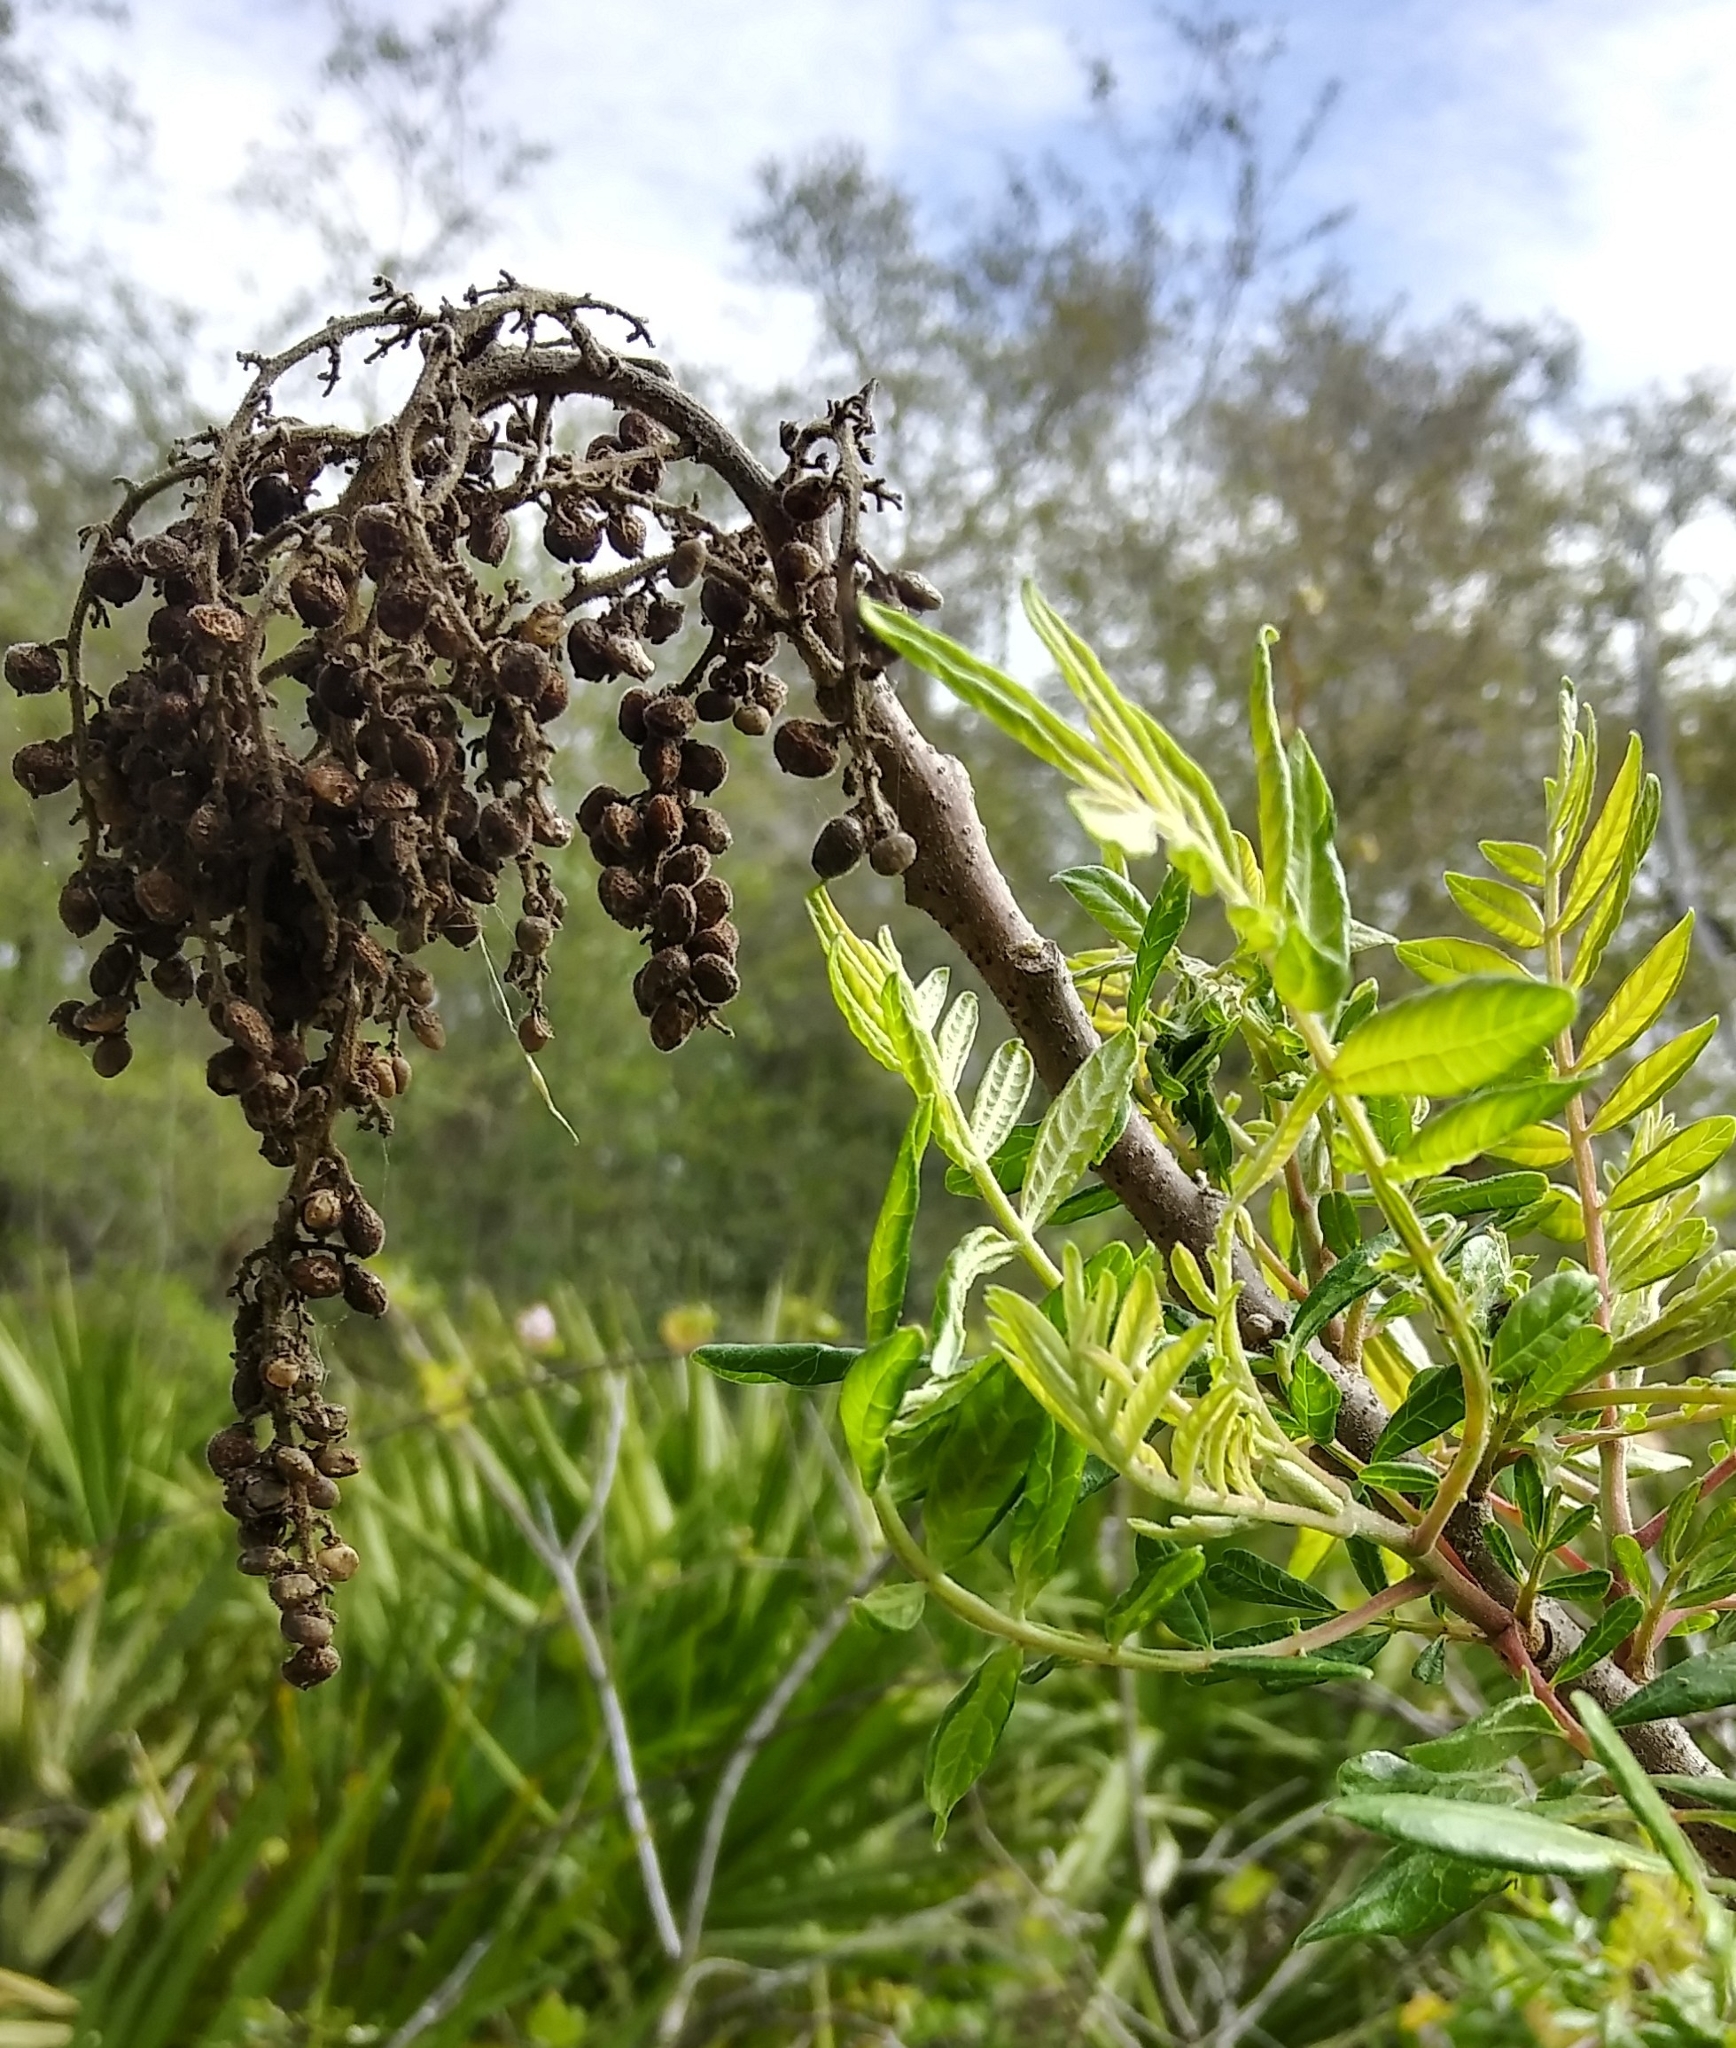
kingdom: Plantae
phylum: Tracheophyta
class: Magnoliopsida
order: Sapindales
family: Anacardiaceae
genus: Rhus
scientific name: Rhus copallina
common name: Shining sumac
